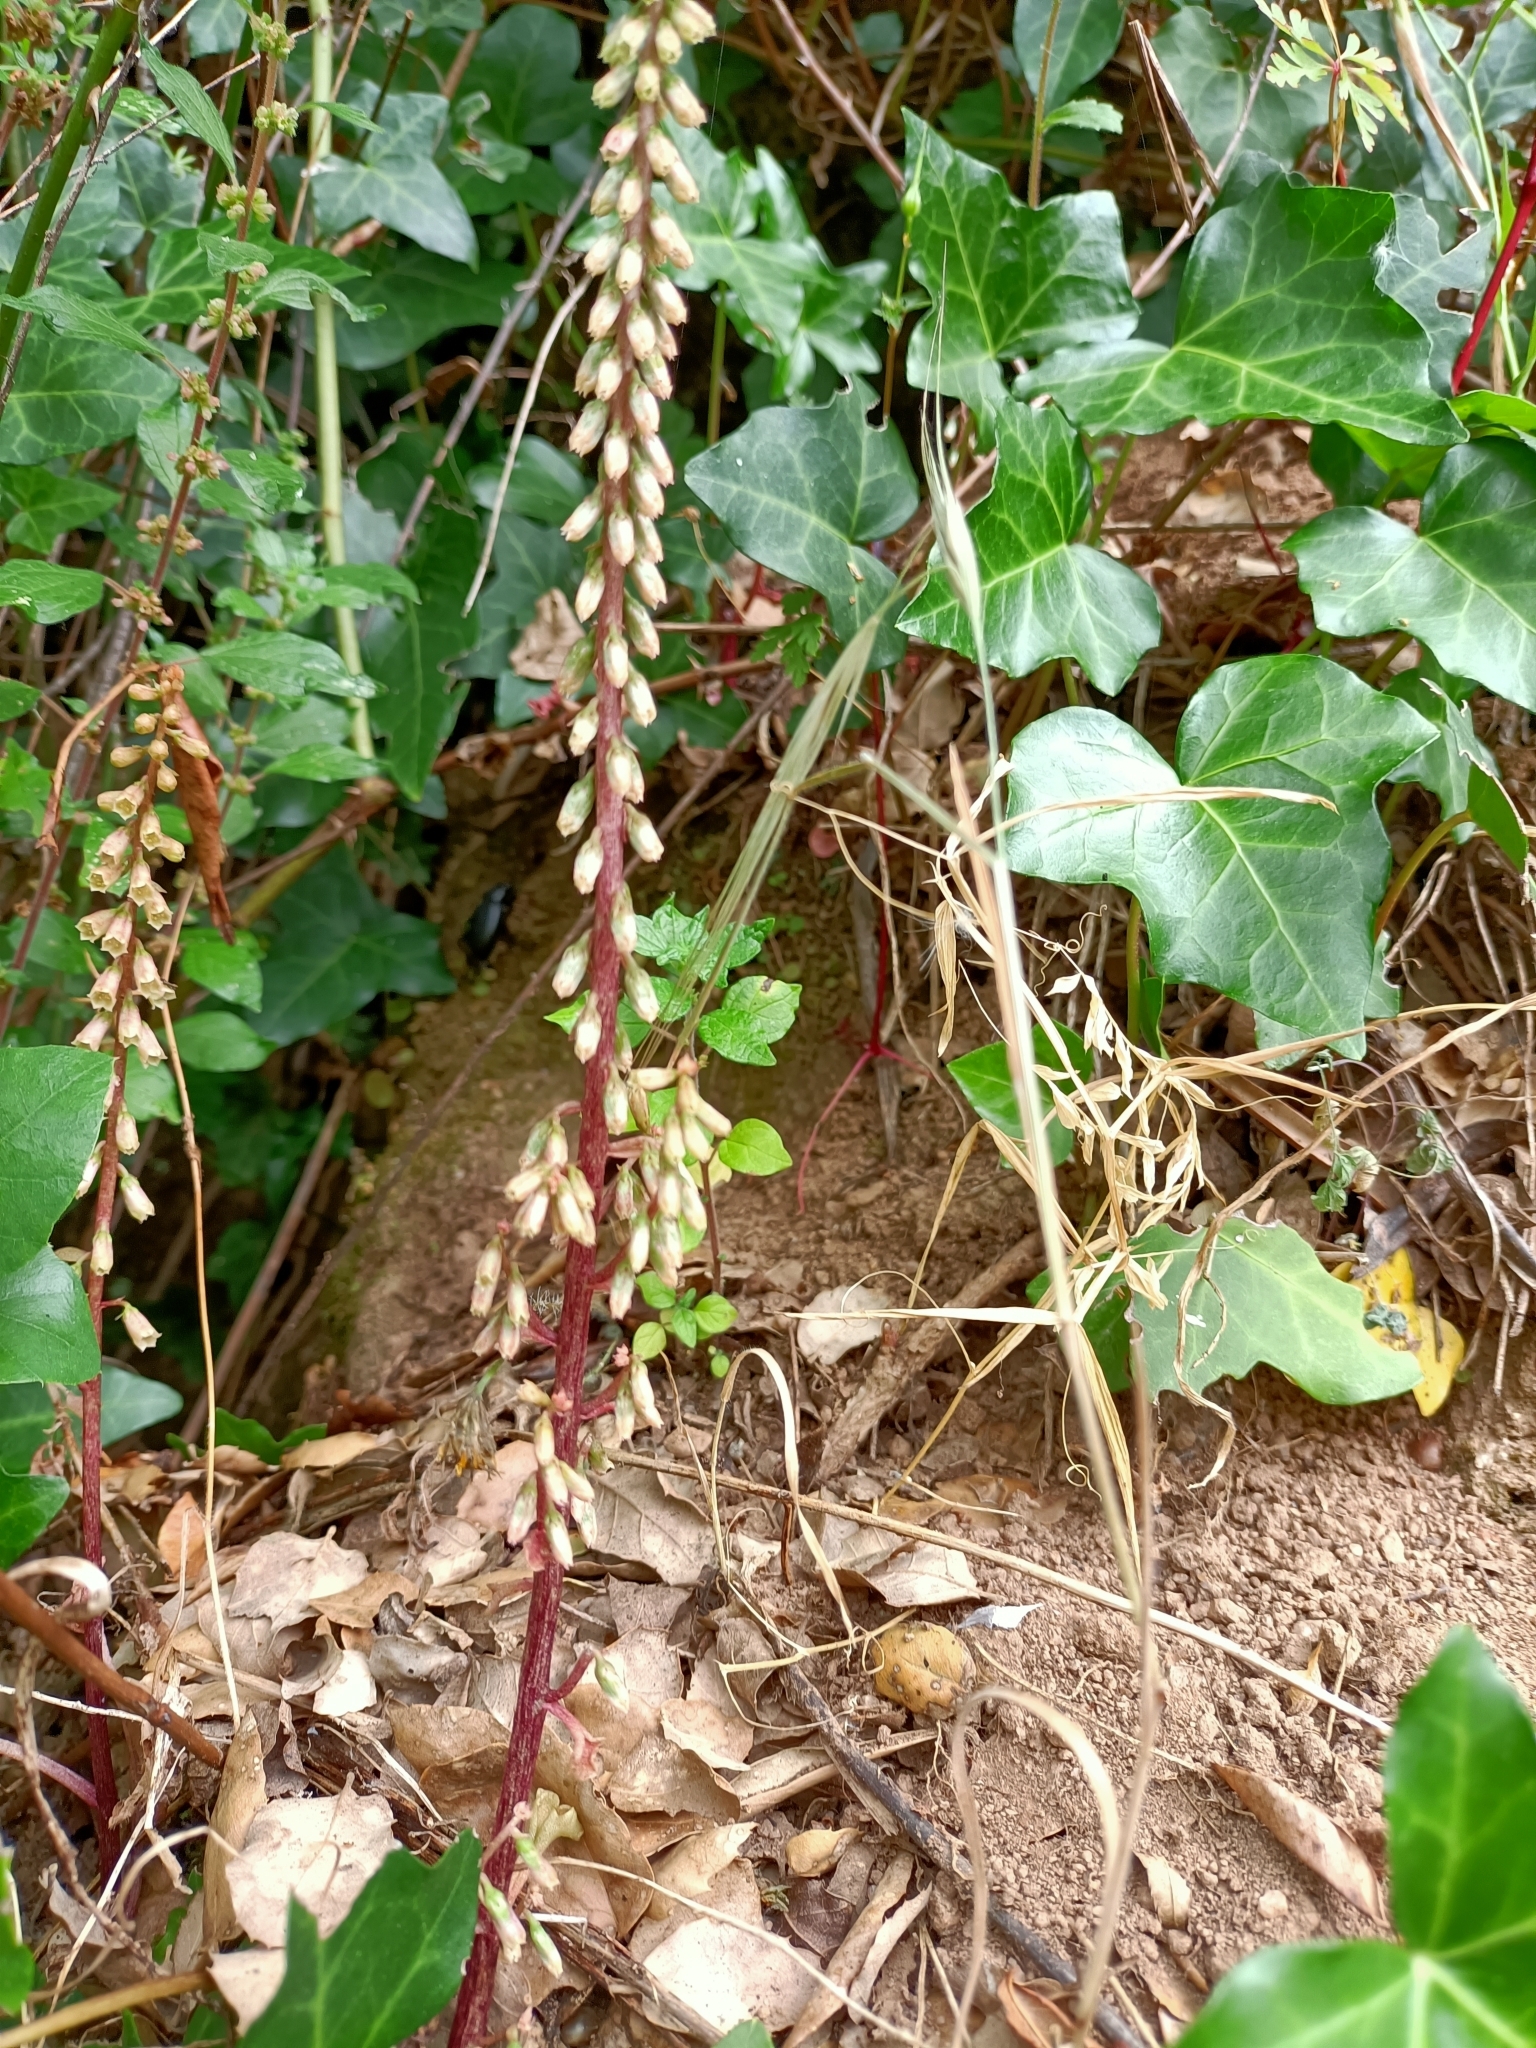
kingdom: Plantae
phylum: Tracheophyta
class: Magnoliopsida
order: Saxifragales
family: Crassulaceae
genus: Umbilicus
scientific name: Umbilicus rupestris
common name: Navelwort
